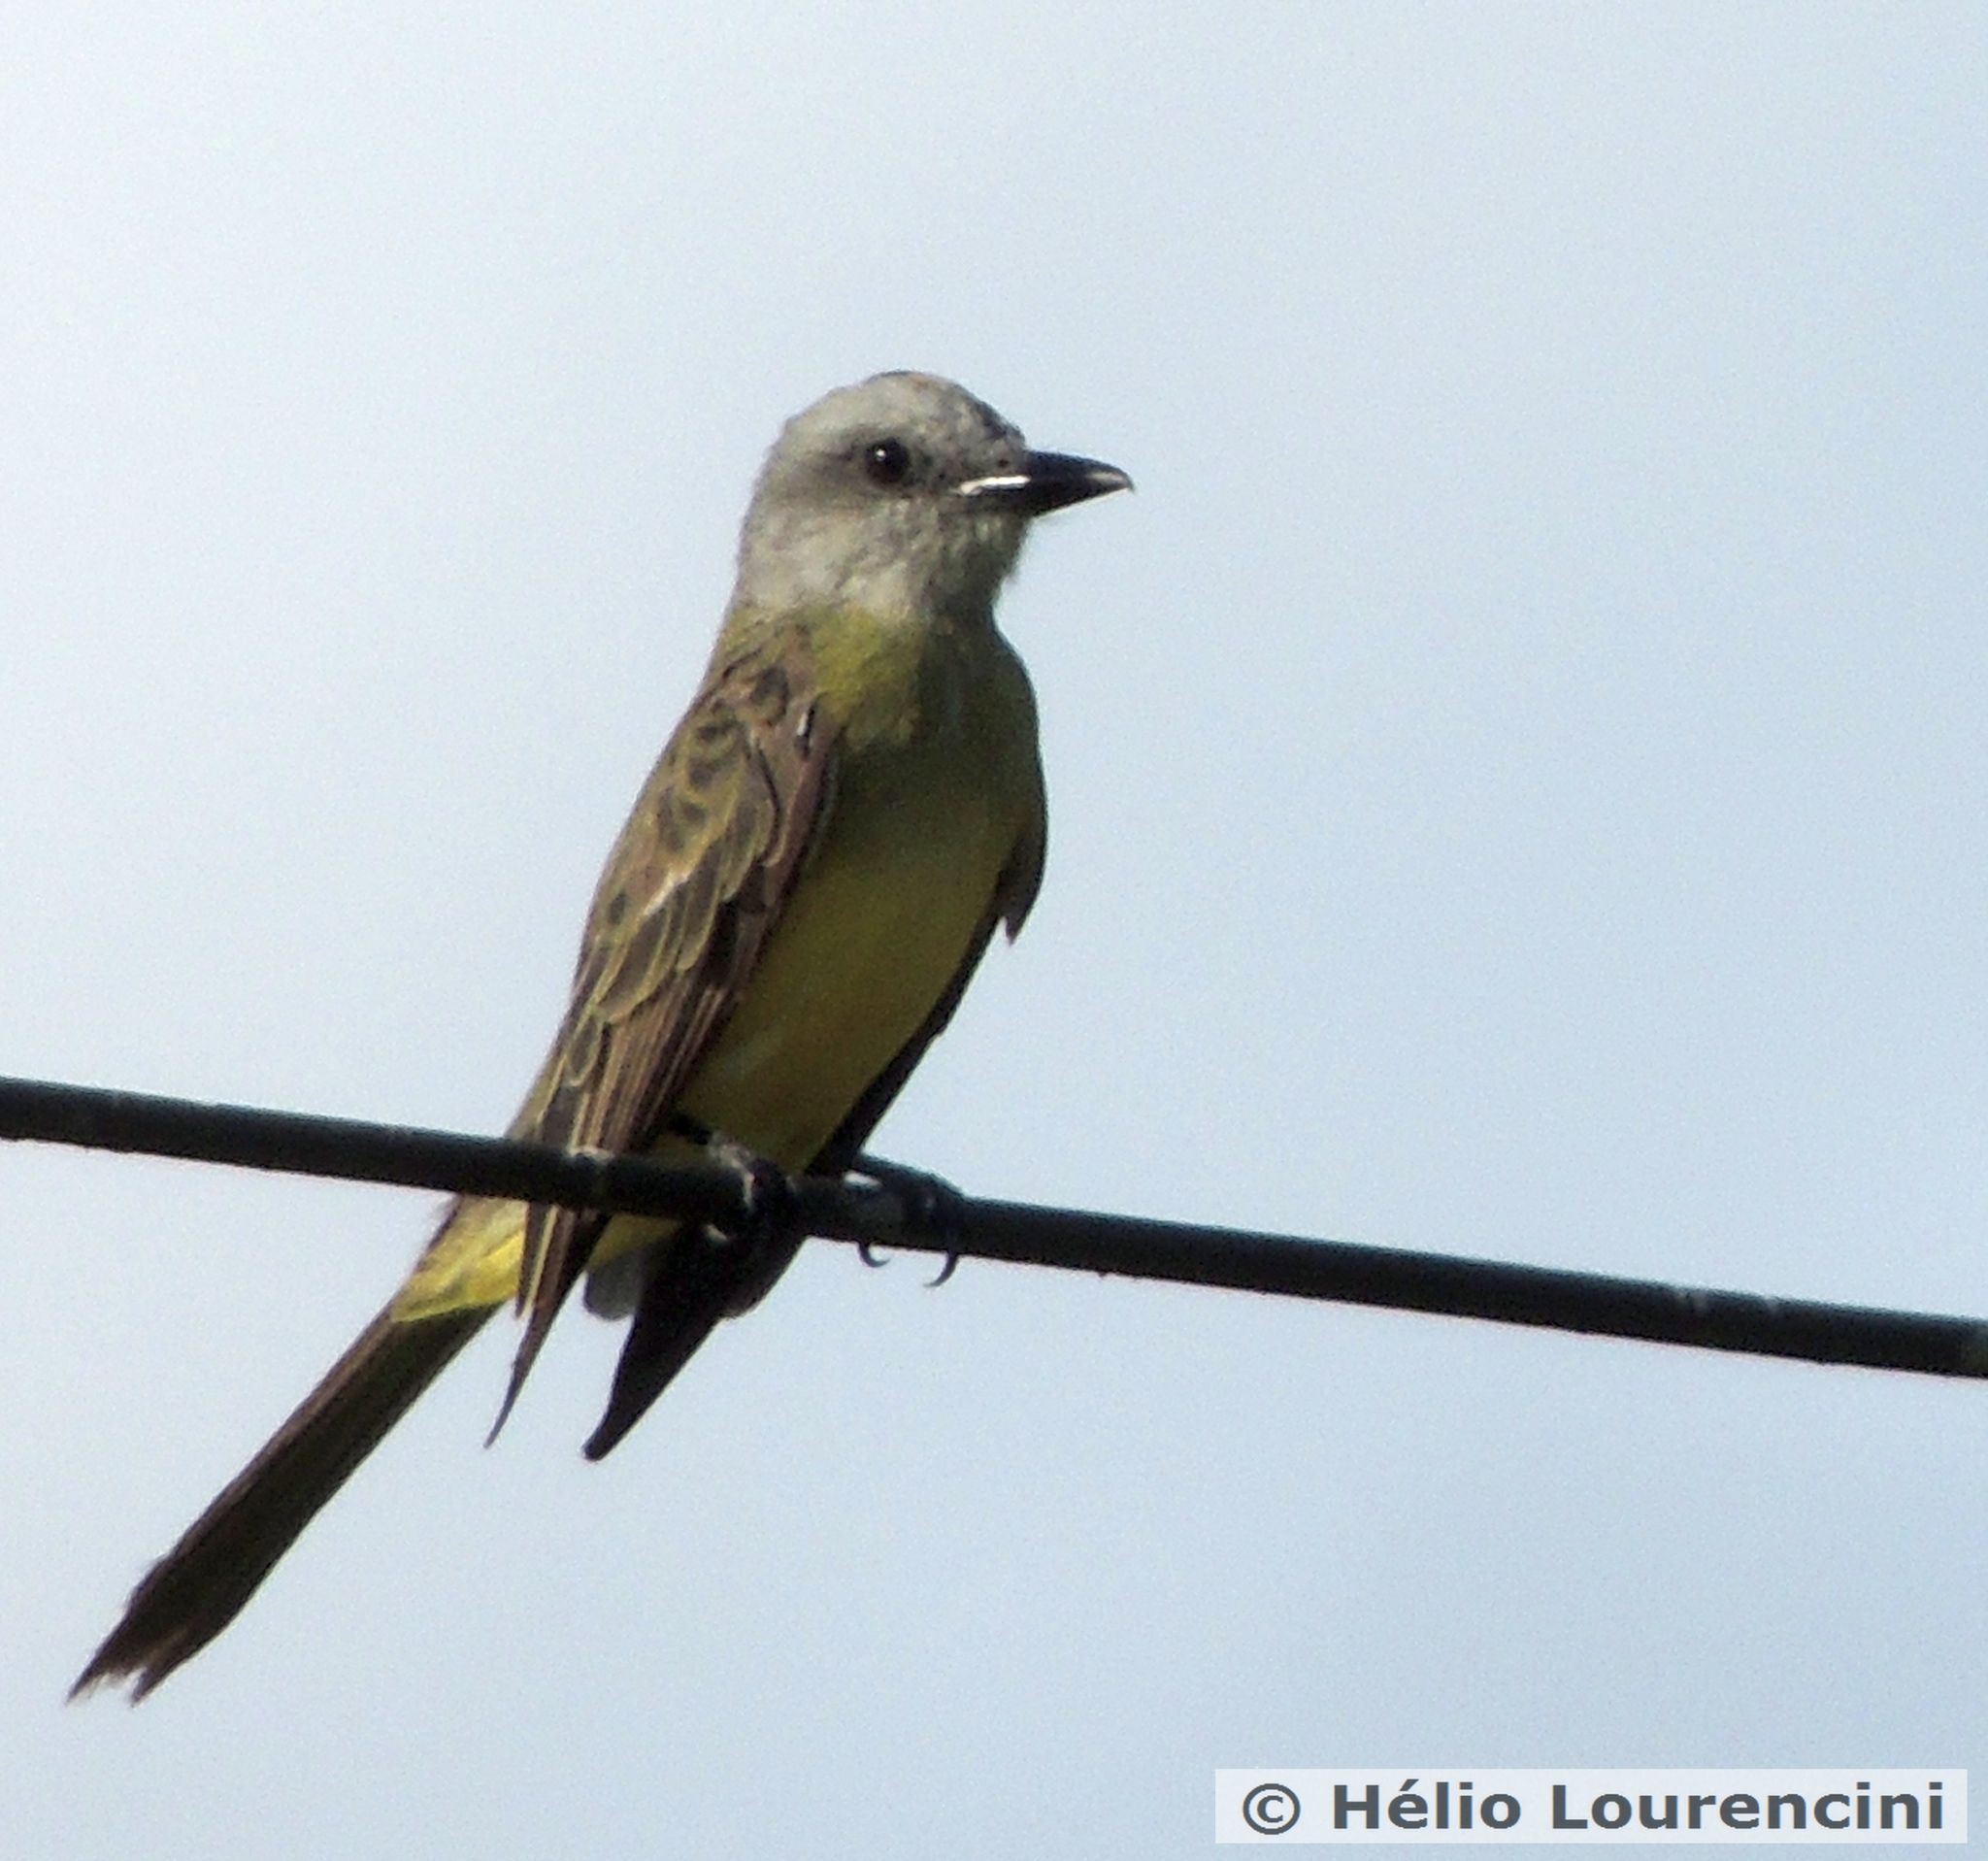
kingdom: Animalia
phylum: Chordata
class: Aves
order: Passeriformes
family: Tyrannidae
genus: Tyrannus
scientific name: Tyrannus melancholicus
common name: Tropical kingbird
